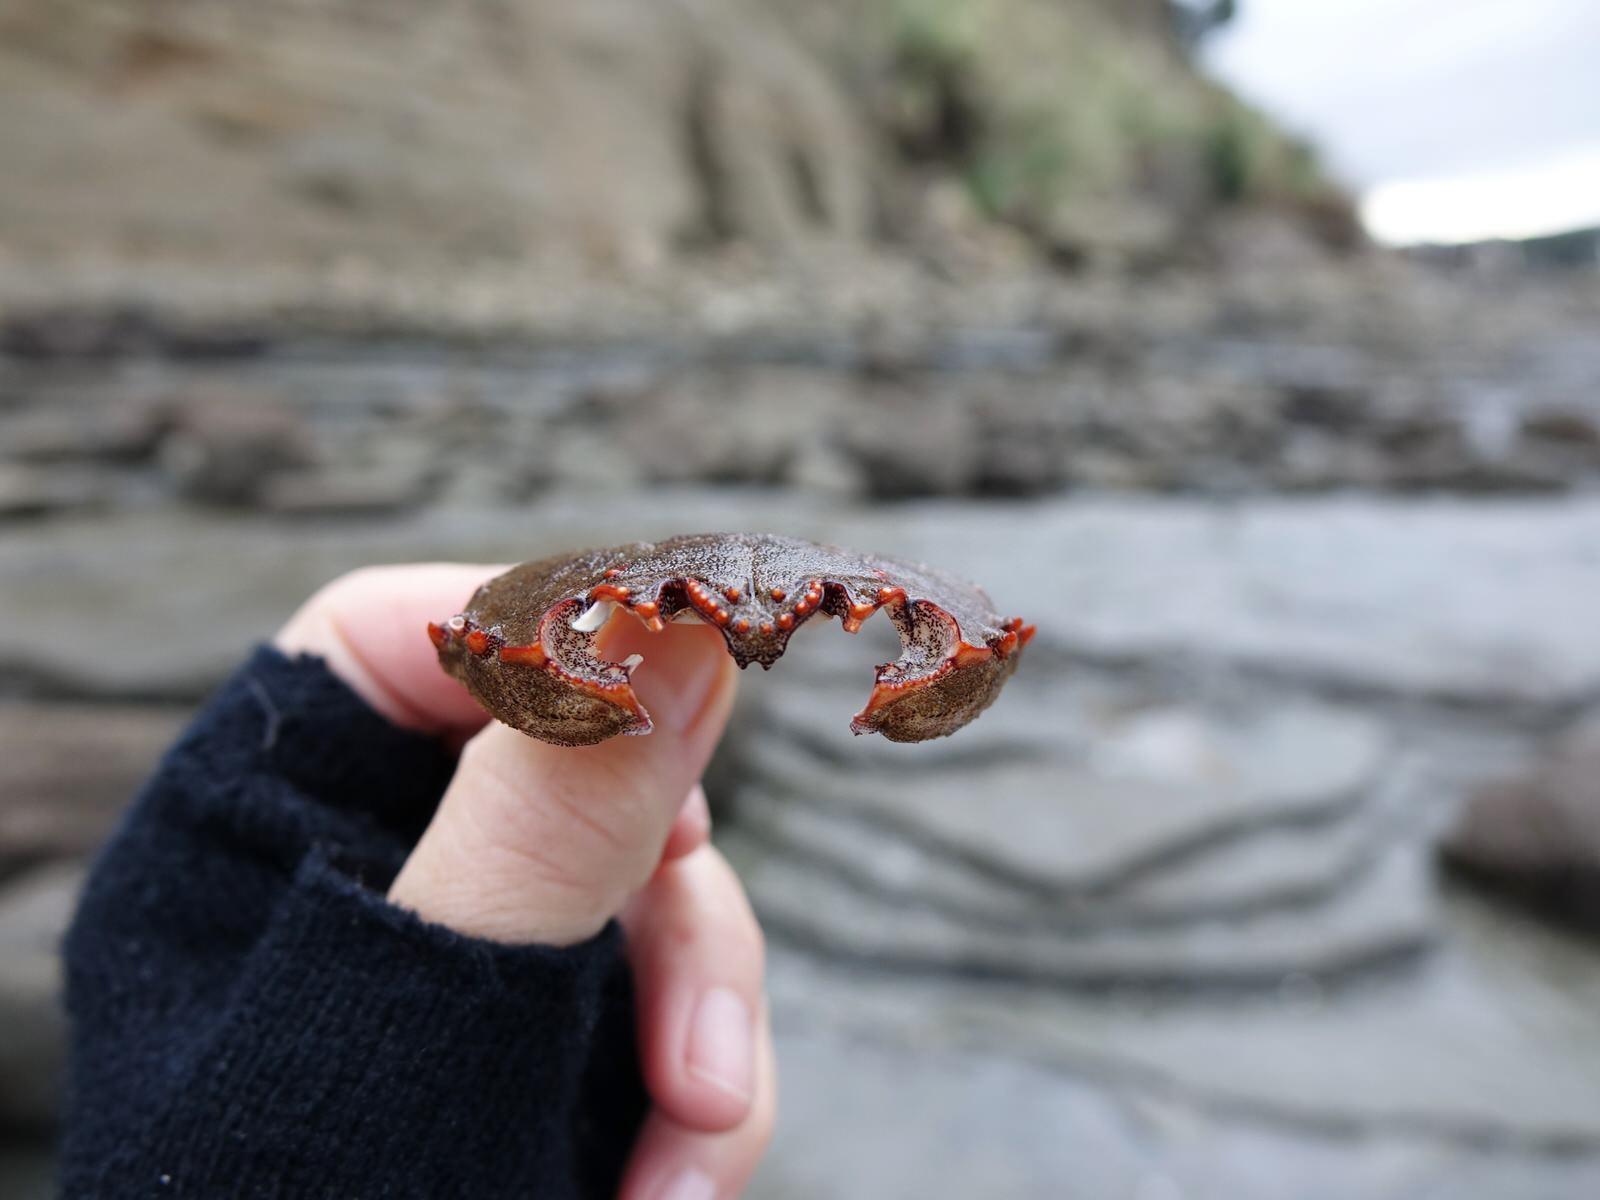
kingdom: Animalia
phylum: Arthropoda
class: Malacostraca
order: Decapoda
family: Plagusiidae
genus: Guinusia
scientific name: Guinusia chabrus
